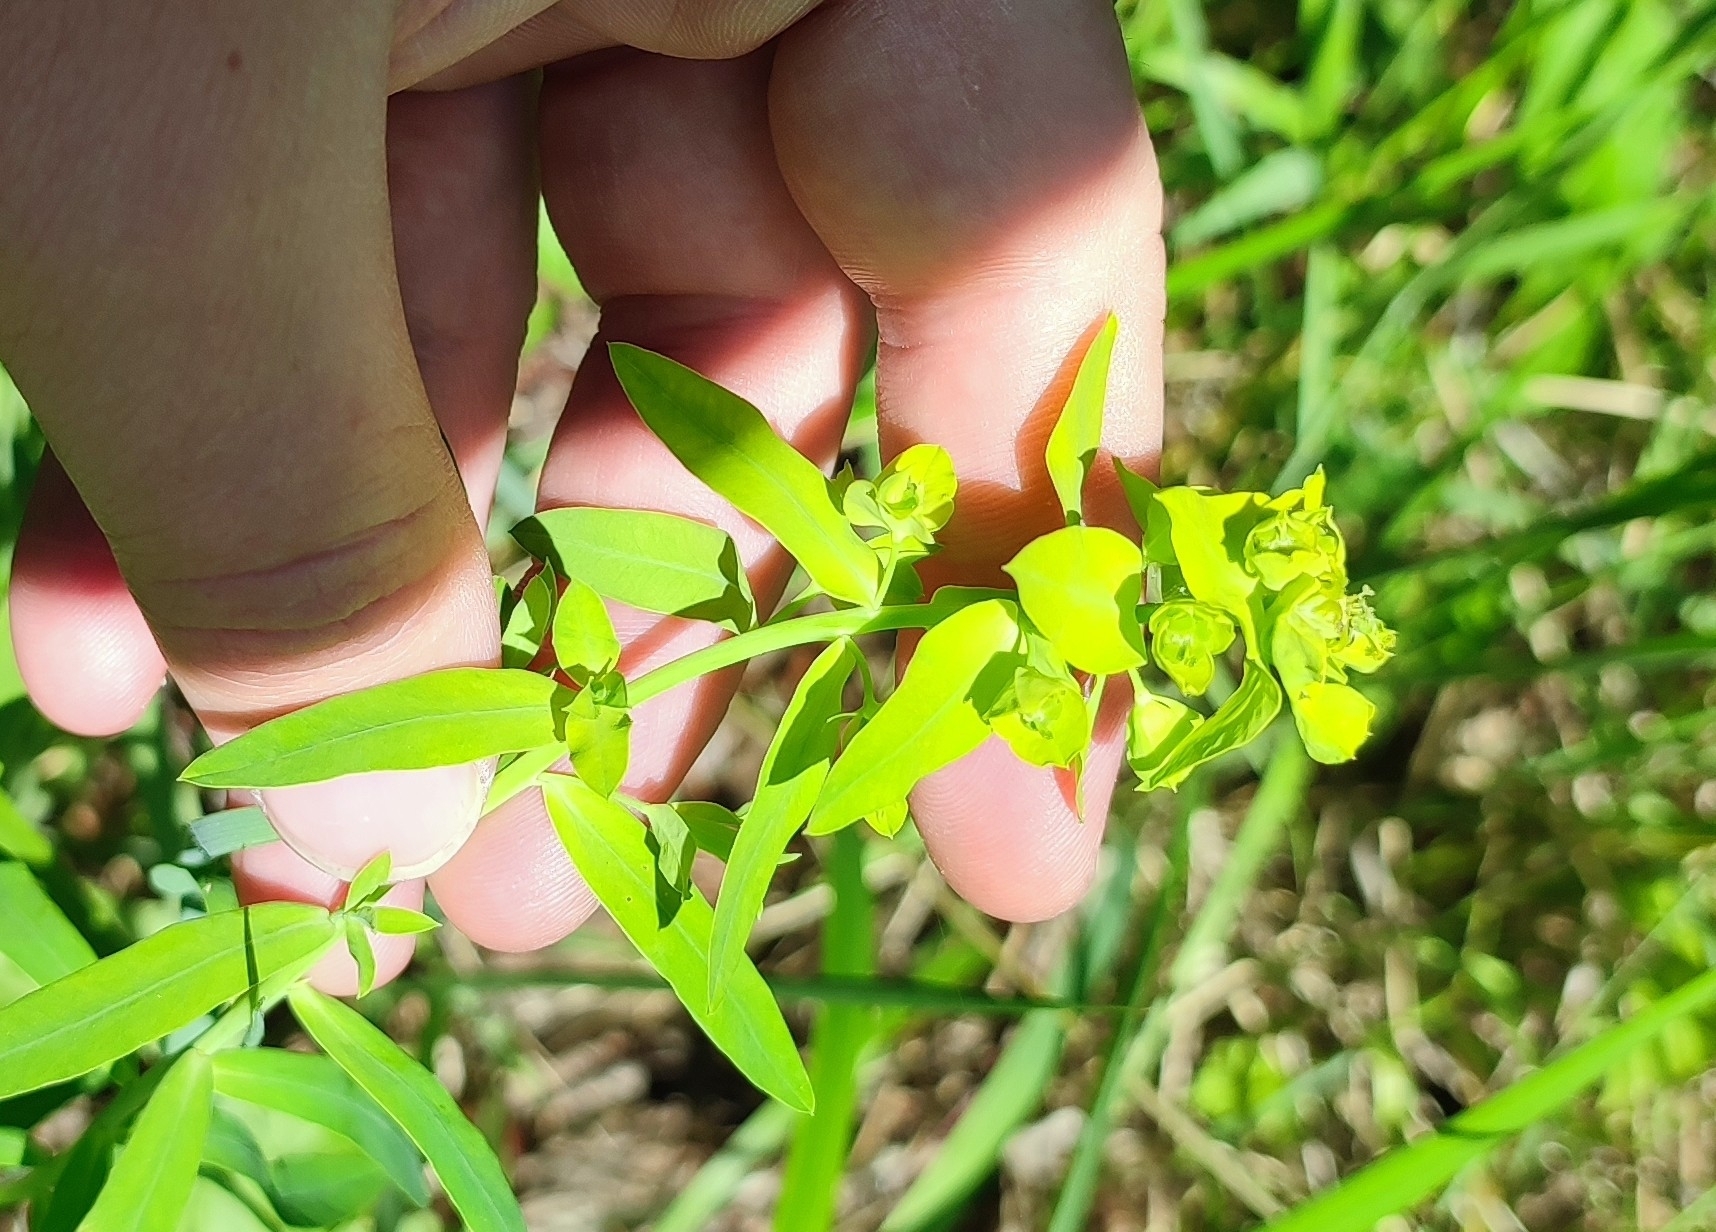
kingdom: Plantae
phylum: Tracheophyta
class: Magnoliopsida
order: Malpighiales
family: Euphorbiaceae
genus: Euphorbia
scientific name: Euphorbia virgata
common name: Leafy spurge
